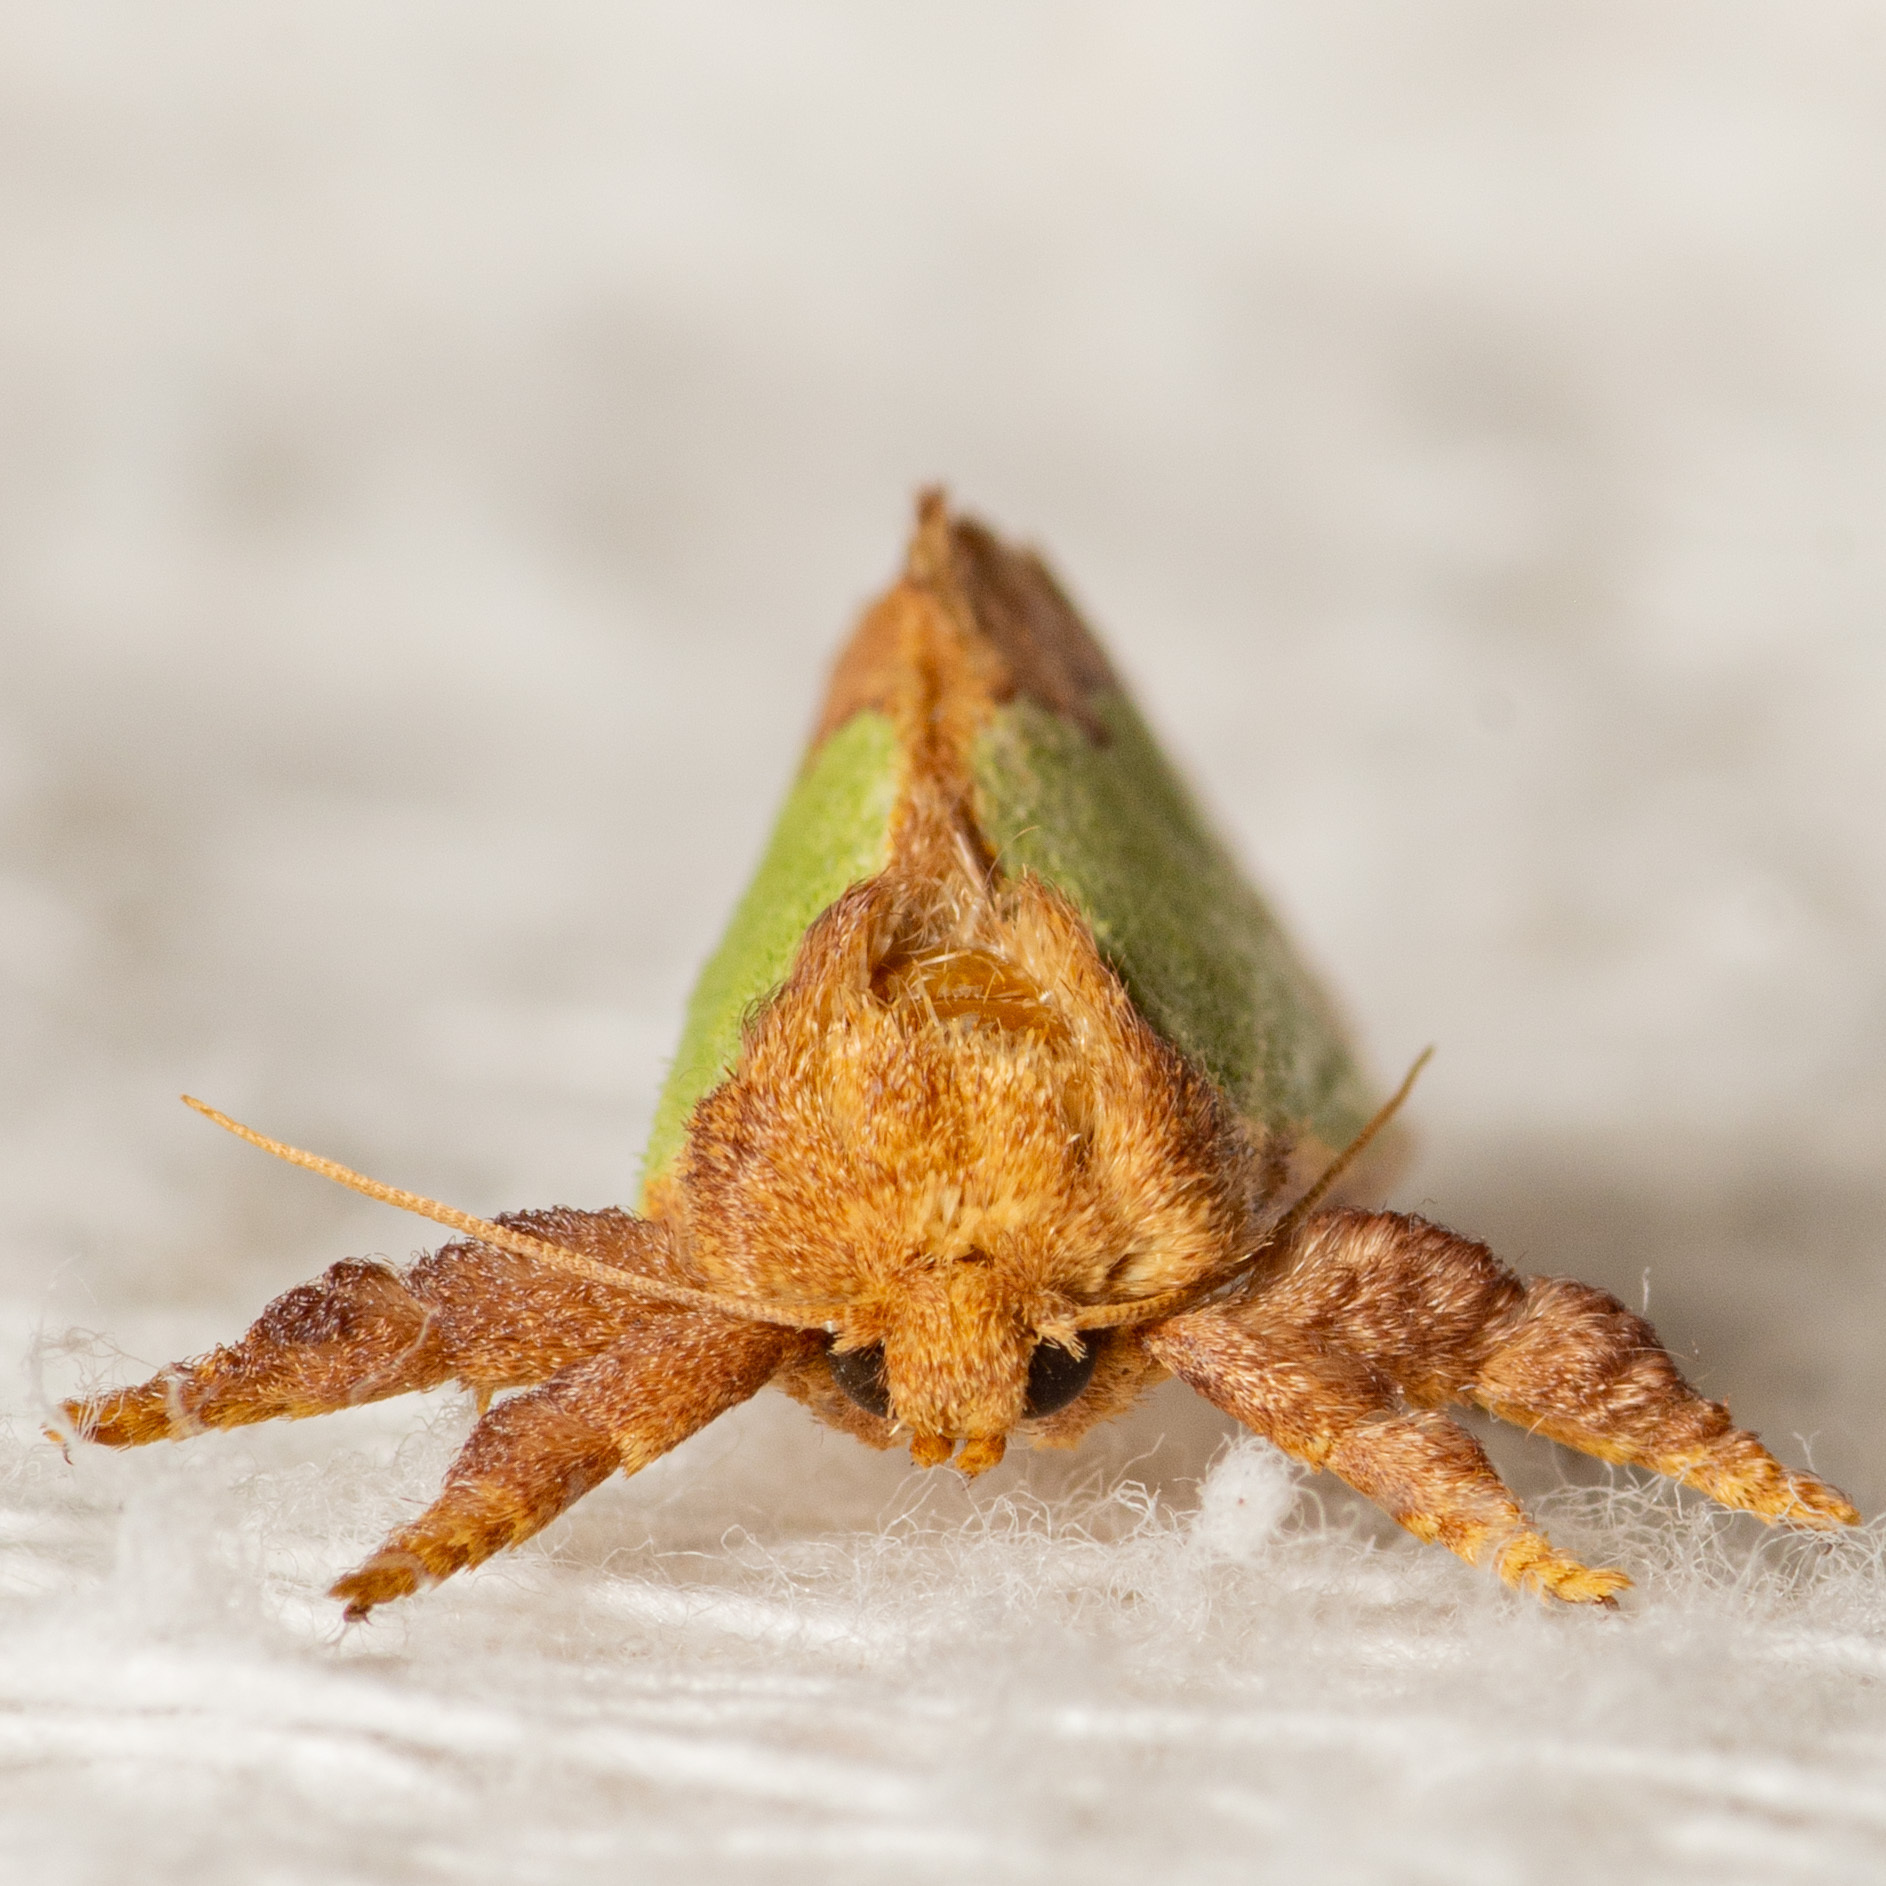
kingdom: Animalia
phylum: Arthropoda
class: Insecta
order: Lepidoptera
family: Limacodidae
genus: Euclea
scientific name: Euclea incisa
